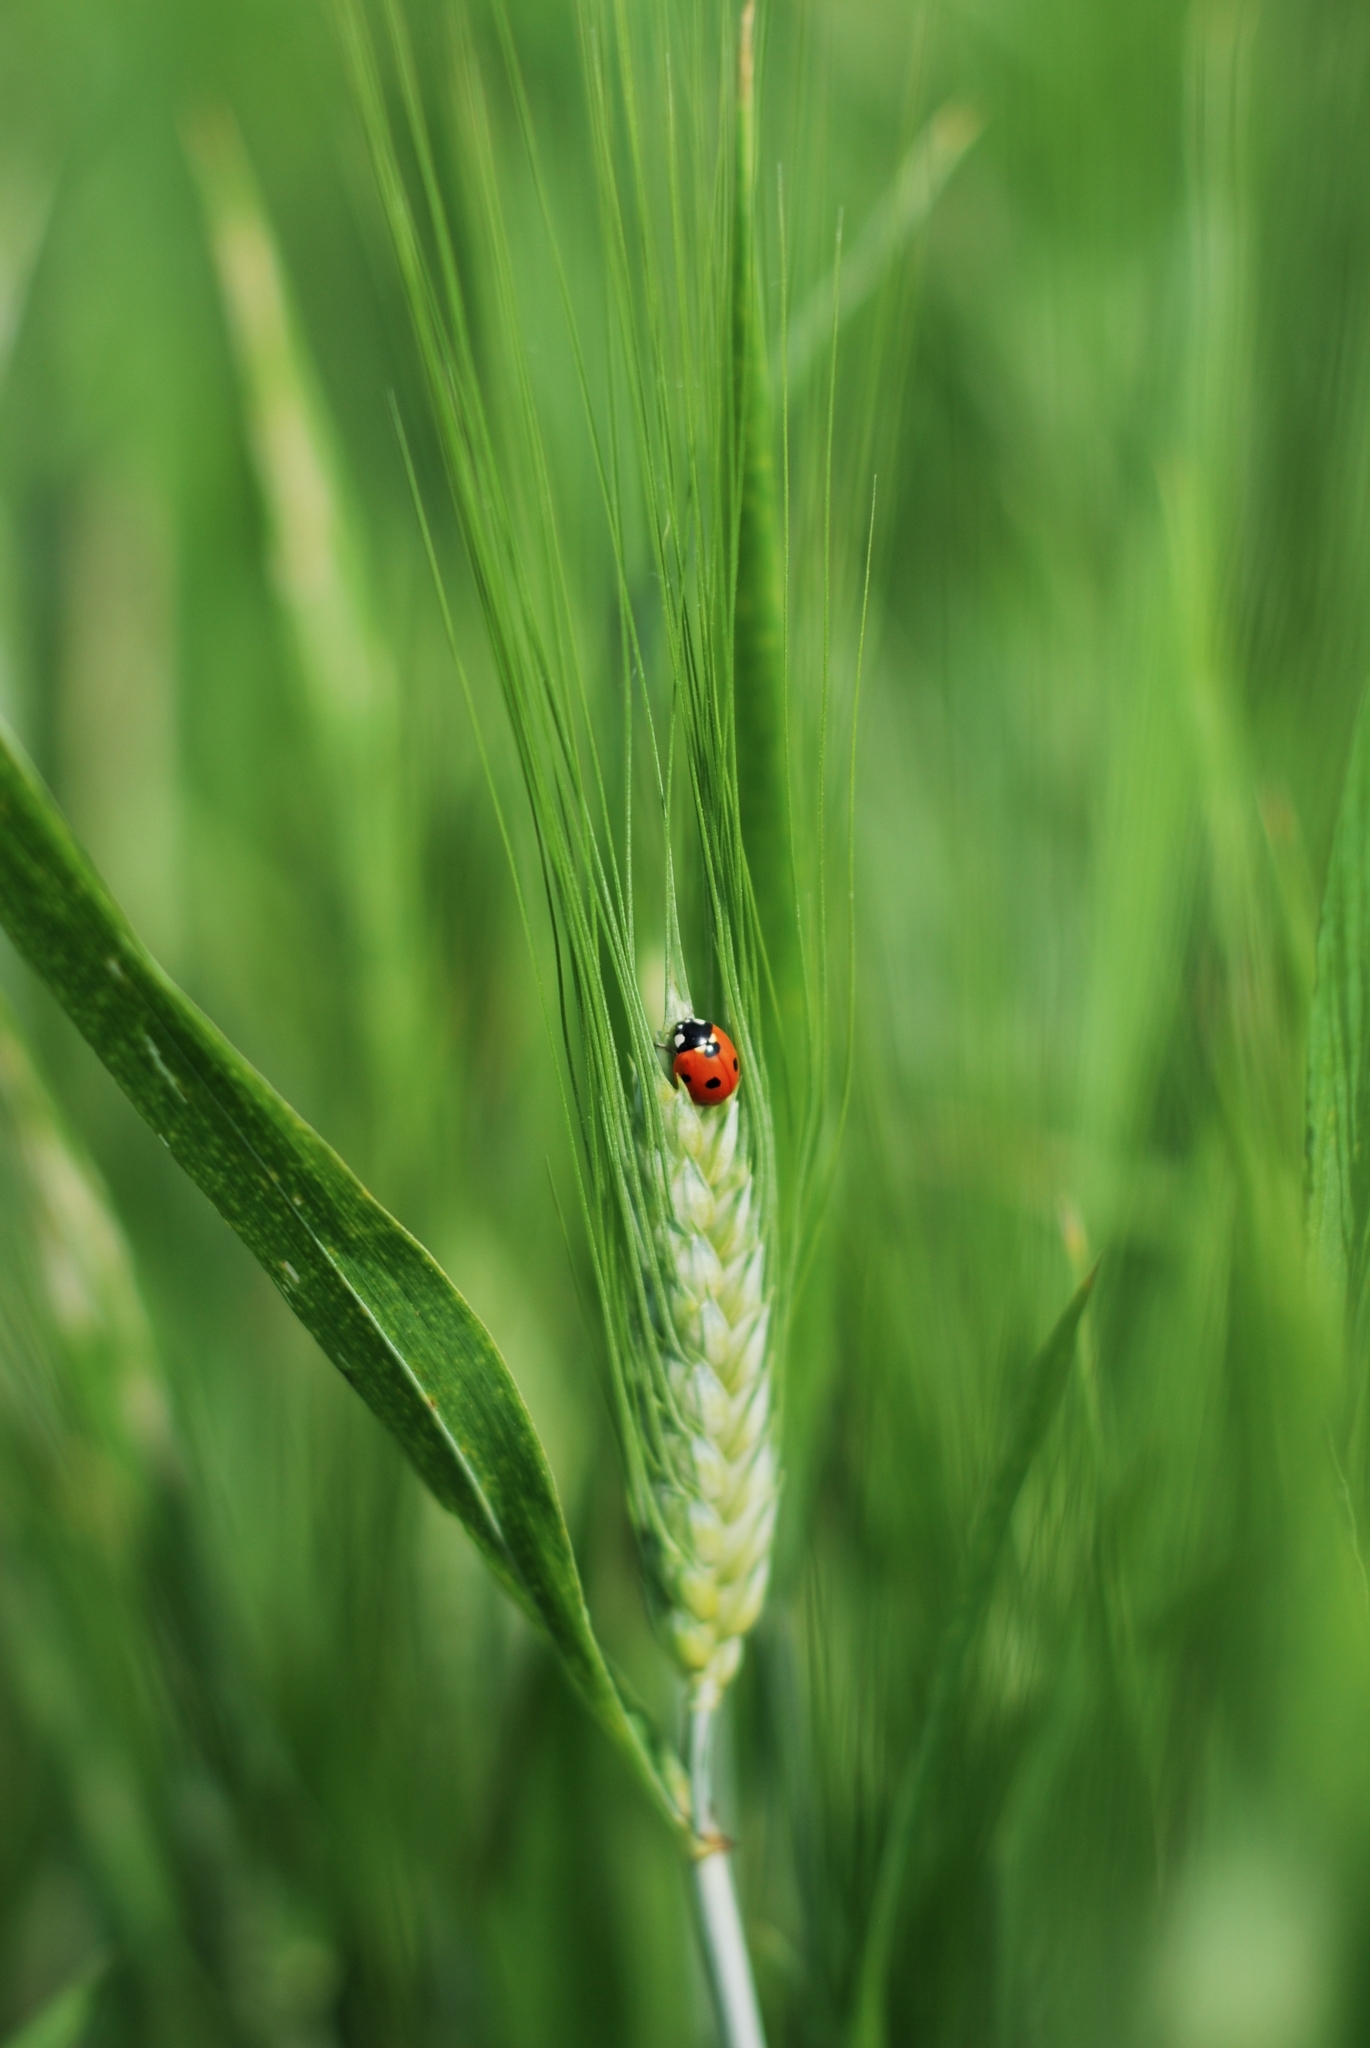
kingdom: Animalia
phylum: Arthropoda
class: Insecta
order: Coleoptera
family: Coccinellidae
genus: Coccinella
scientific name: Coccinella septempunctata
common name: Sevenspotted lady beetle
